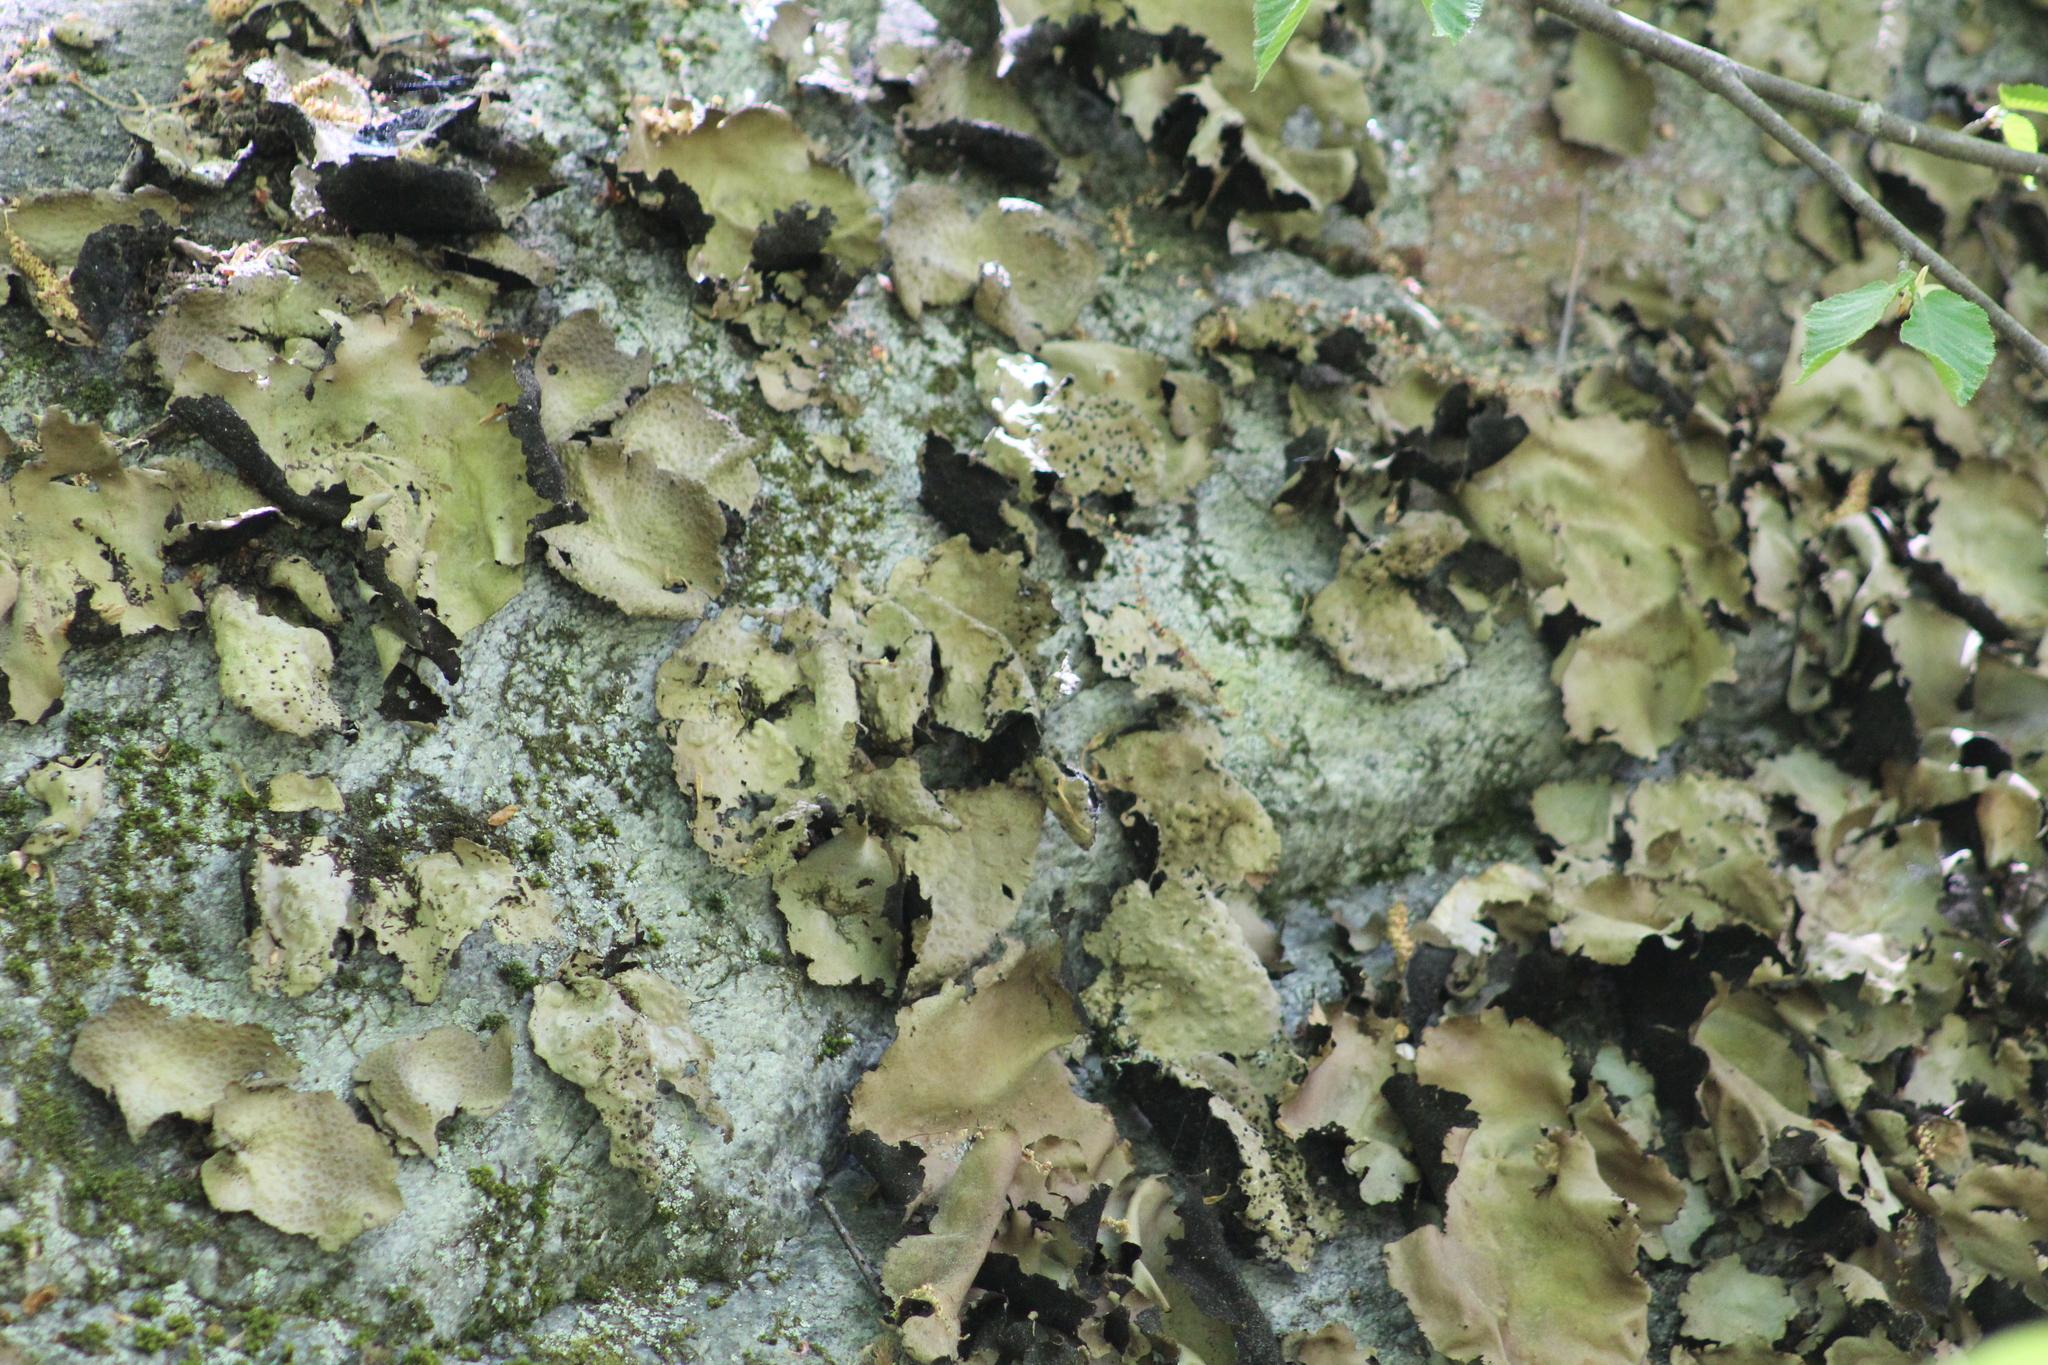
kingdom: Fungi
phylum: Ascomycota
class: Lecanoromycetes
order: Umbilicariales
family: Umbilicariaceae
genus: Umbilicaria
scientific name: Umbilicaria mammulata
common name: Smooth rock tripe
